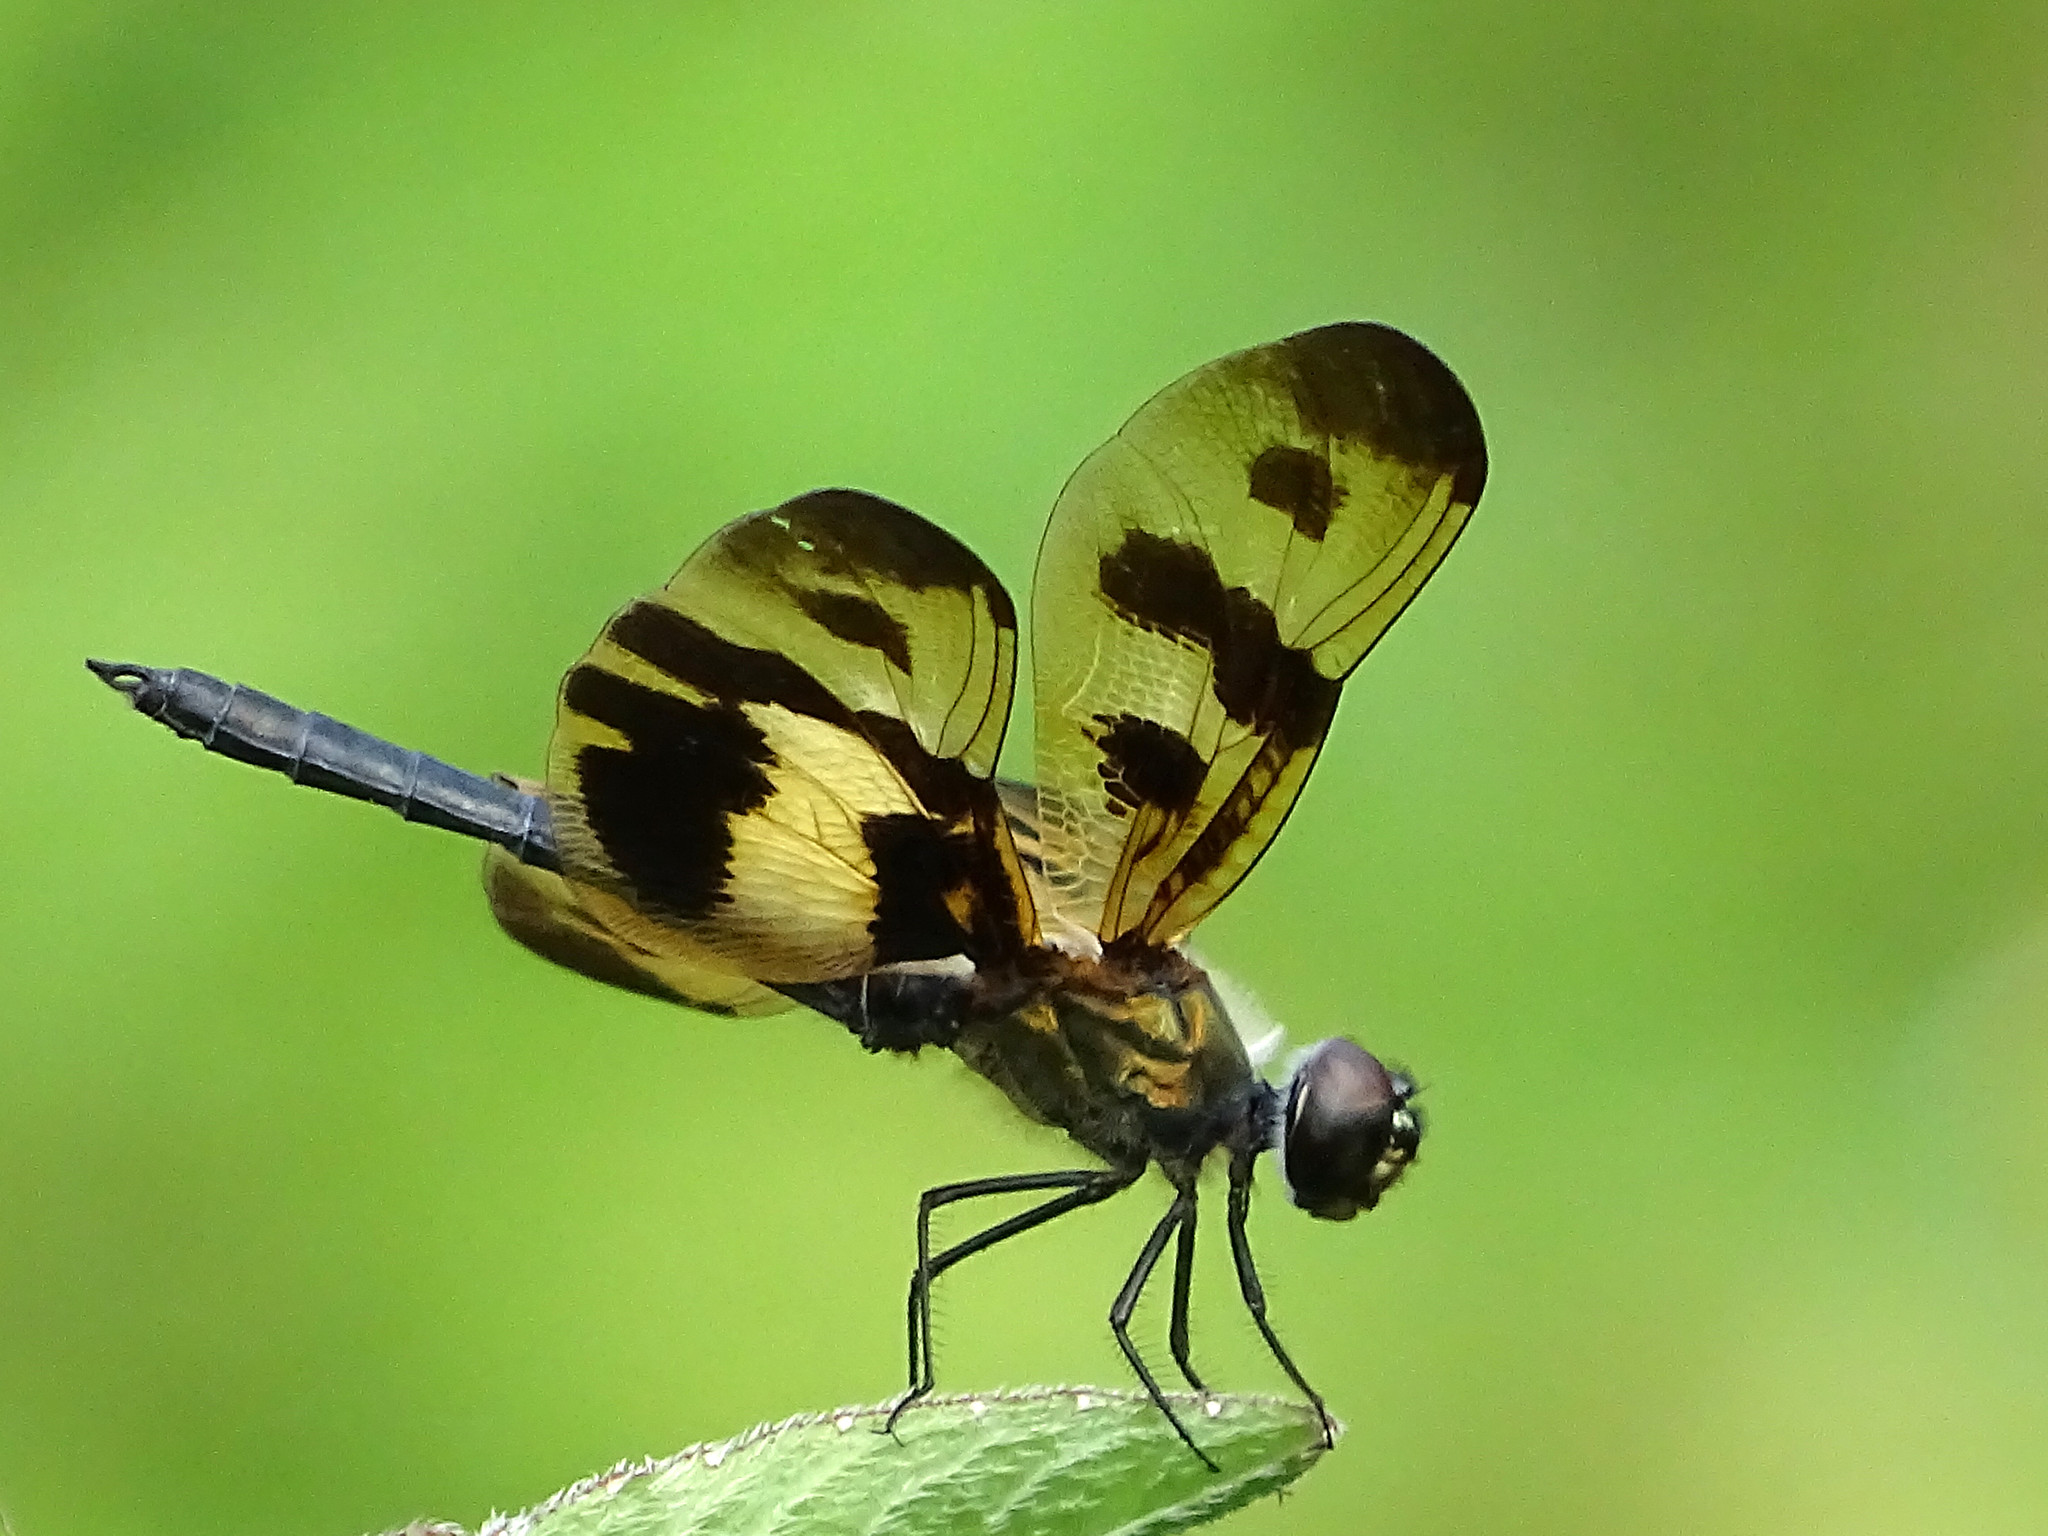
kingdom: Animalia
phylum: Arthropoda
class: Insecta
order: Odonata
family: Libellulidae
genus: Rhyothemis
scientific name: Rhyothemis variegata
